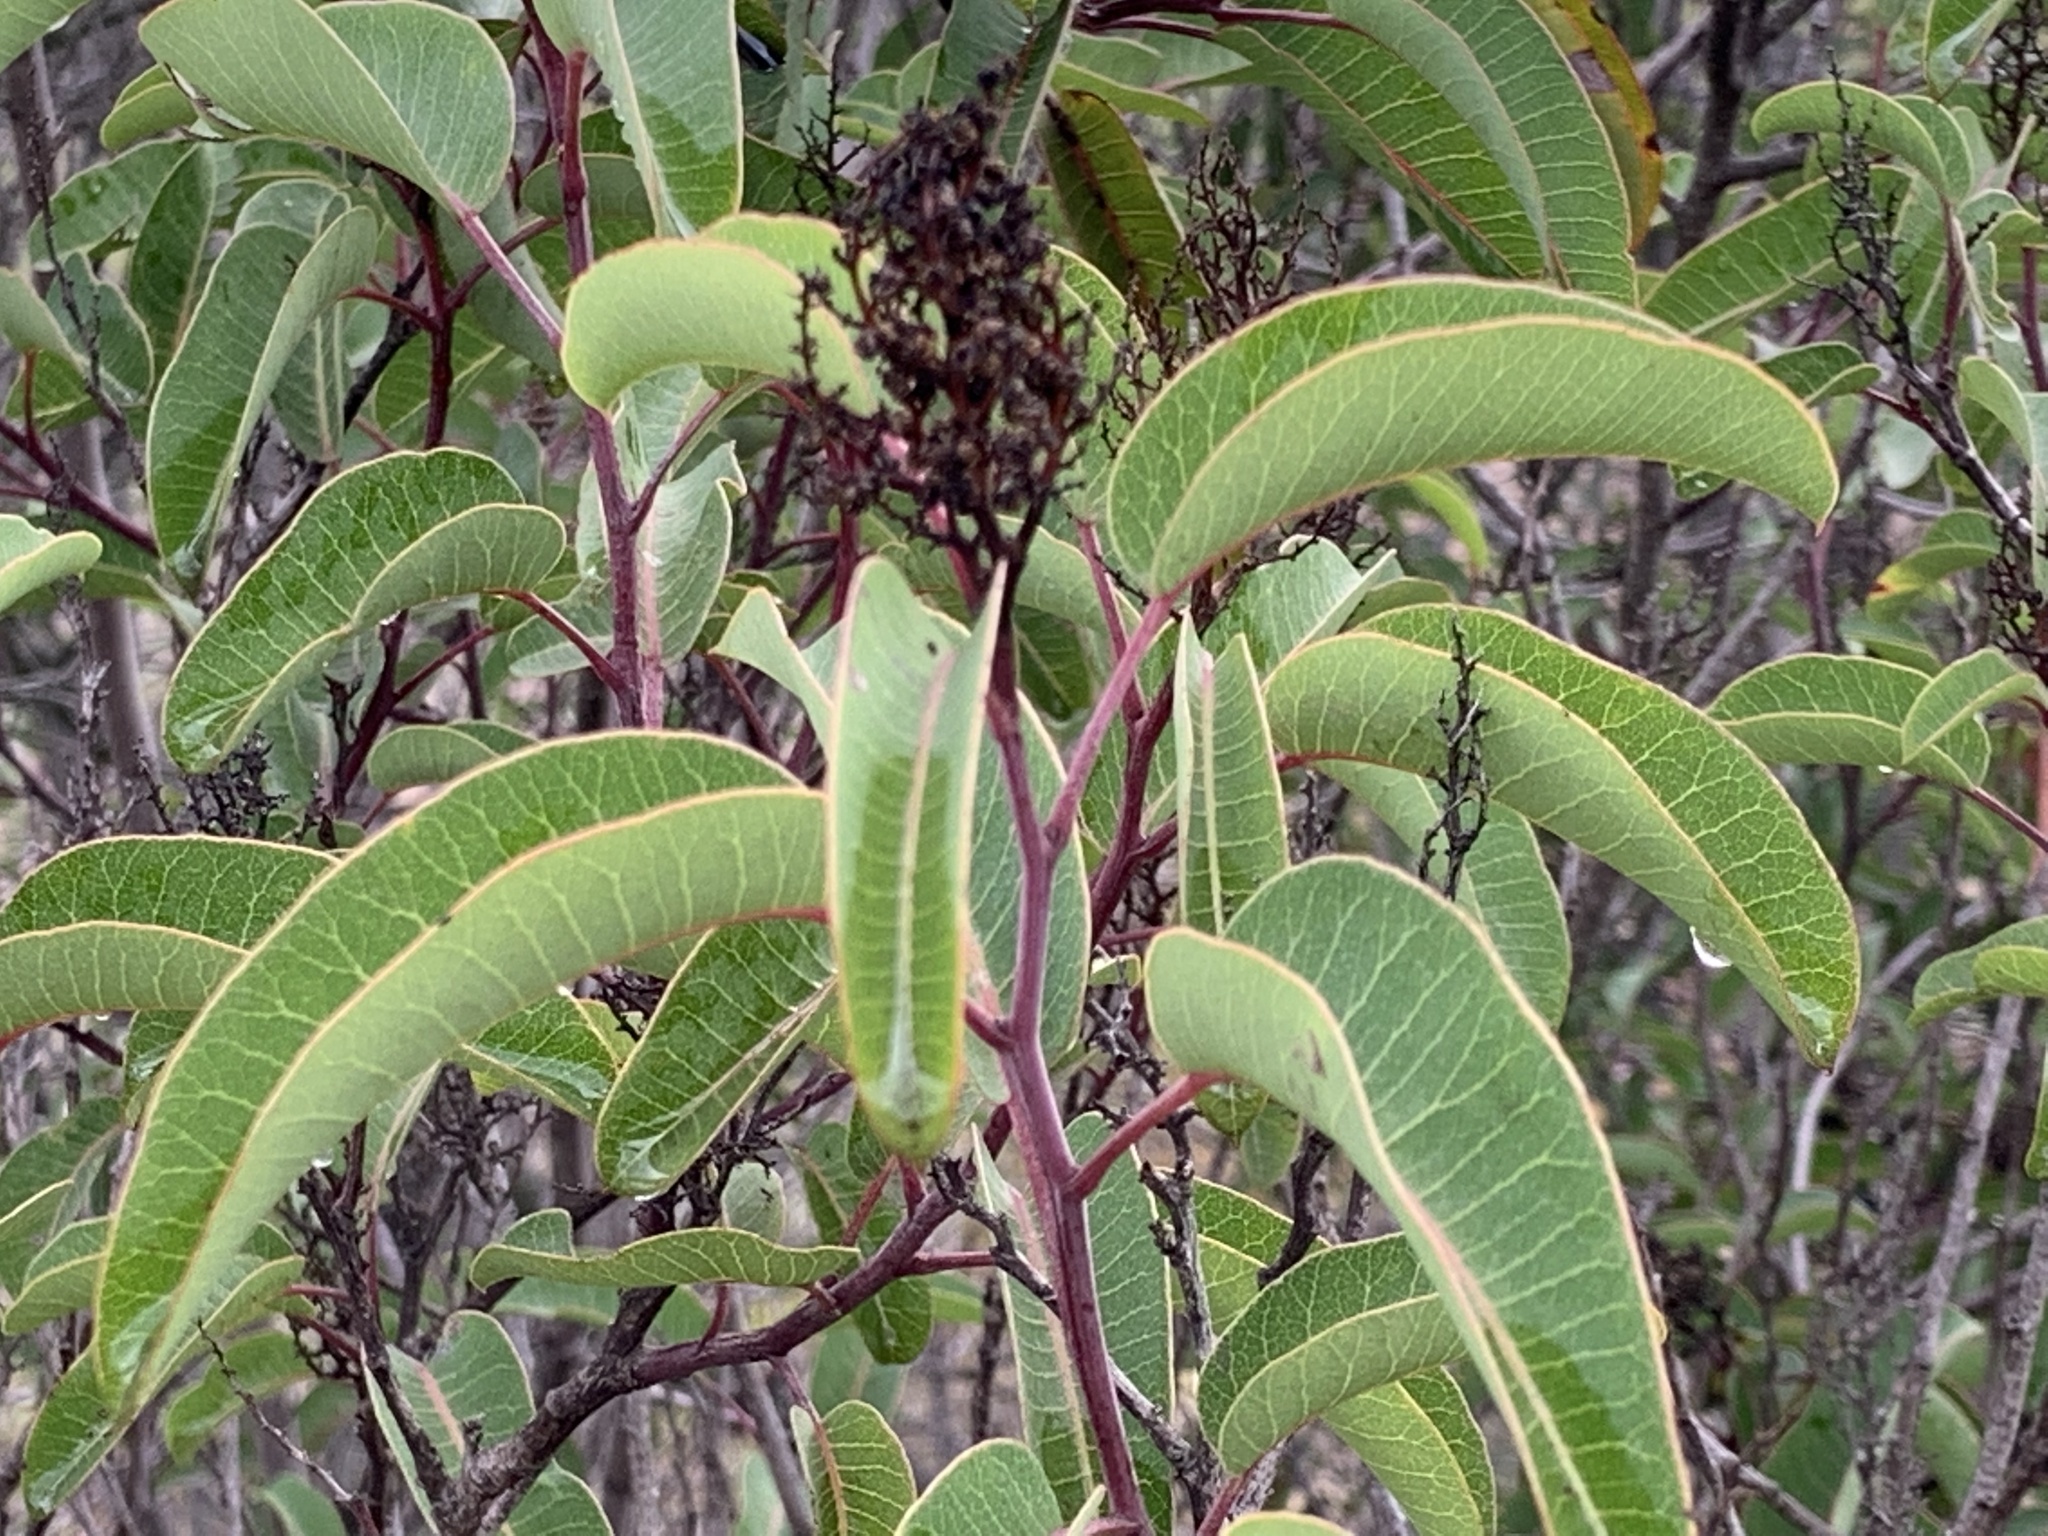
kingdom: Plantae
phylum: Tracheophyta
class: Magnoliopsida
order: Sapindales
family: Anacardiaceae
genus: Malosma
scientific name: Malosma laurina
